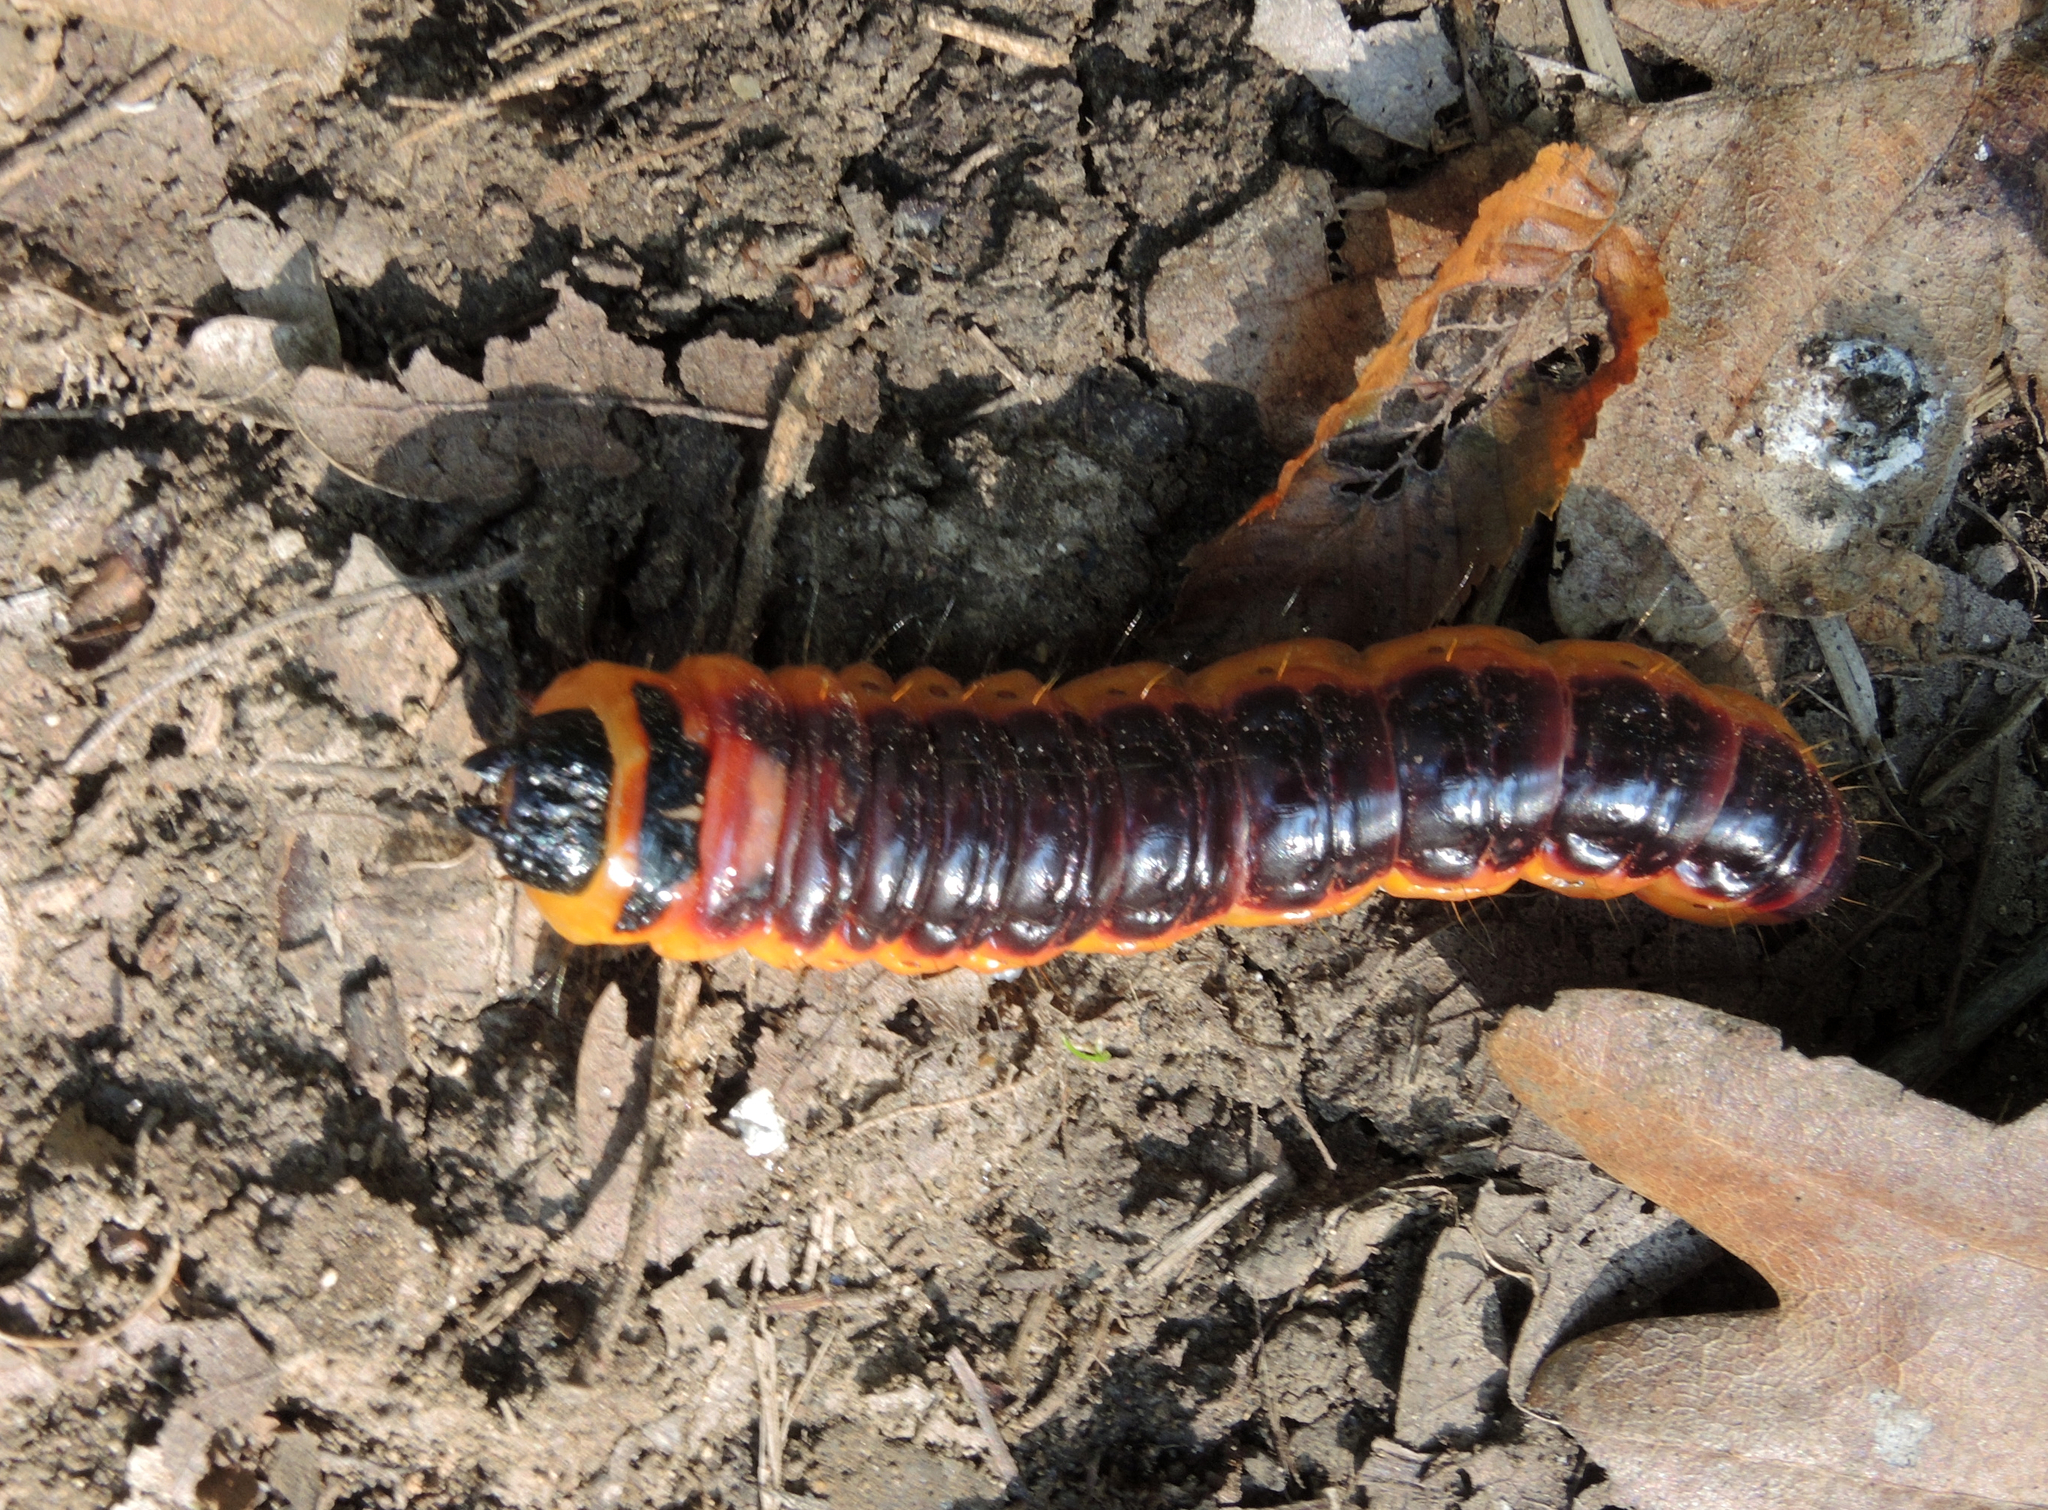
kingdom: Animalia
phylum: Arthropoda
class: Insecta
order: Lepidoptera
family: Cossidae
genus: Cossus
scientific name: Cossus cossus
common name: Goat moth
